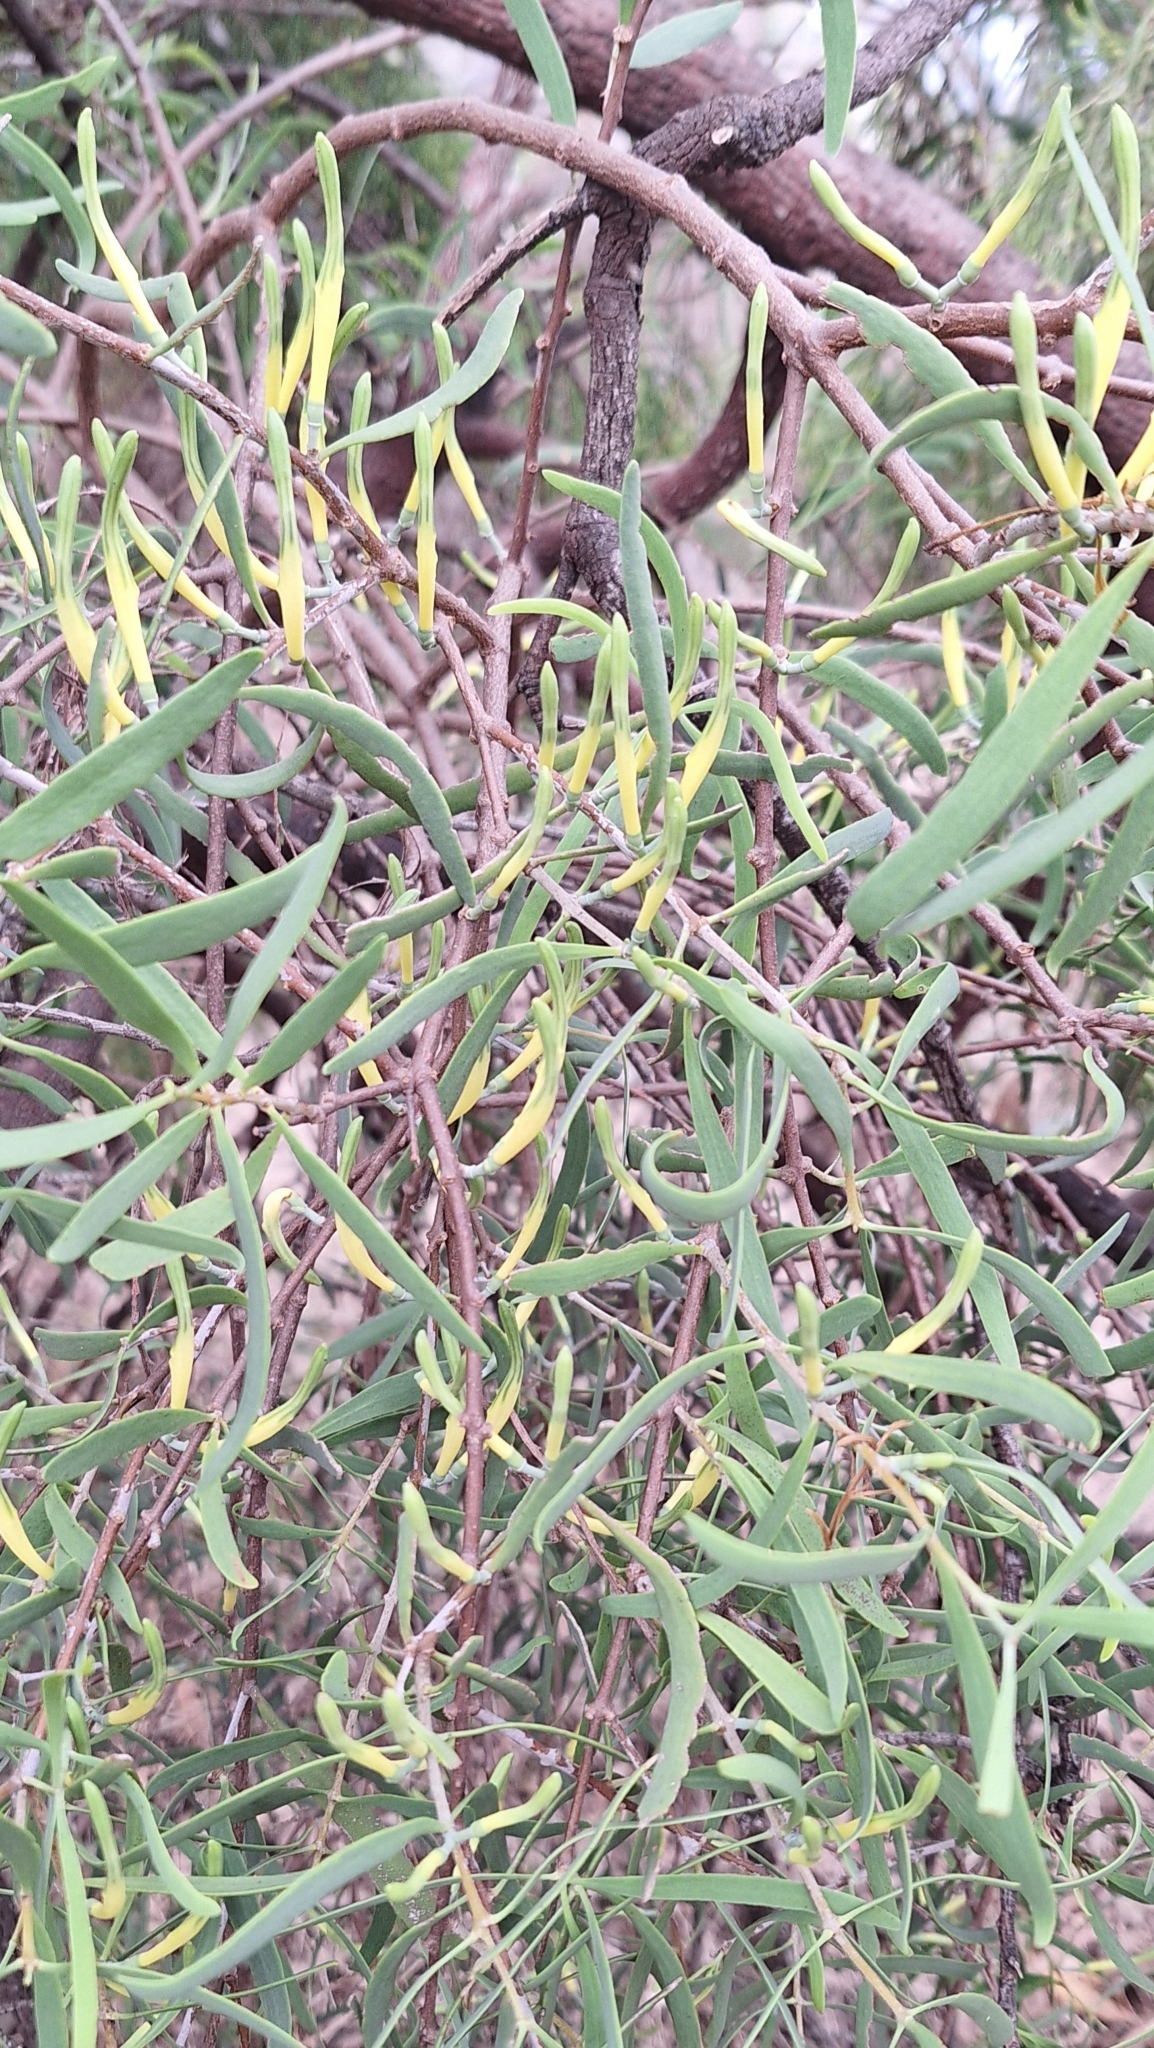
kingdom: Plantae
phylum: Tracheophyta
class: Magnoliopsida
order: Santalales
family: Loranthaceae
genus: Lysiana
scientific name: Lysiana exocarpi
